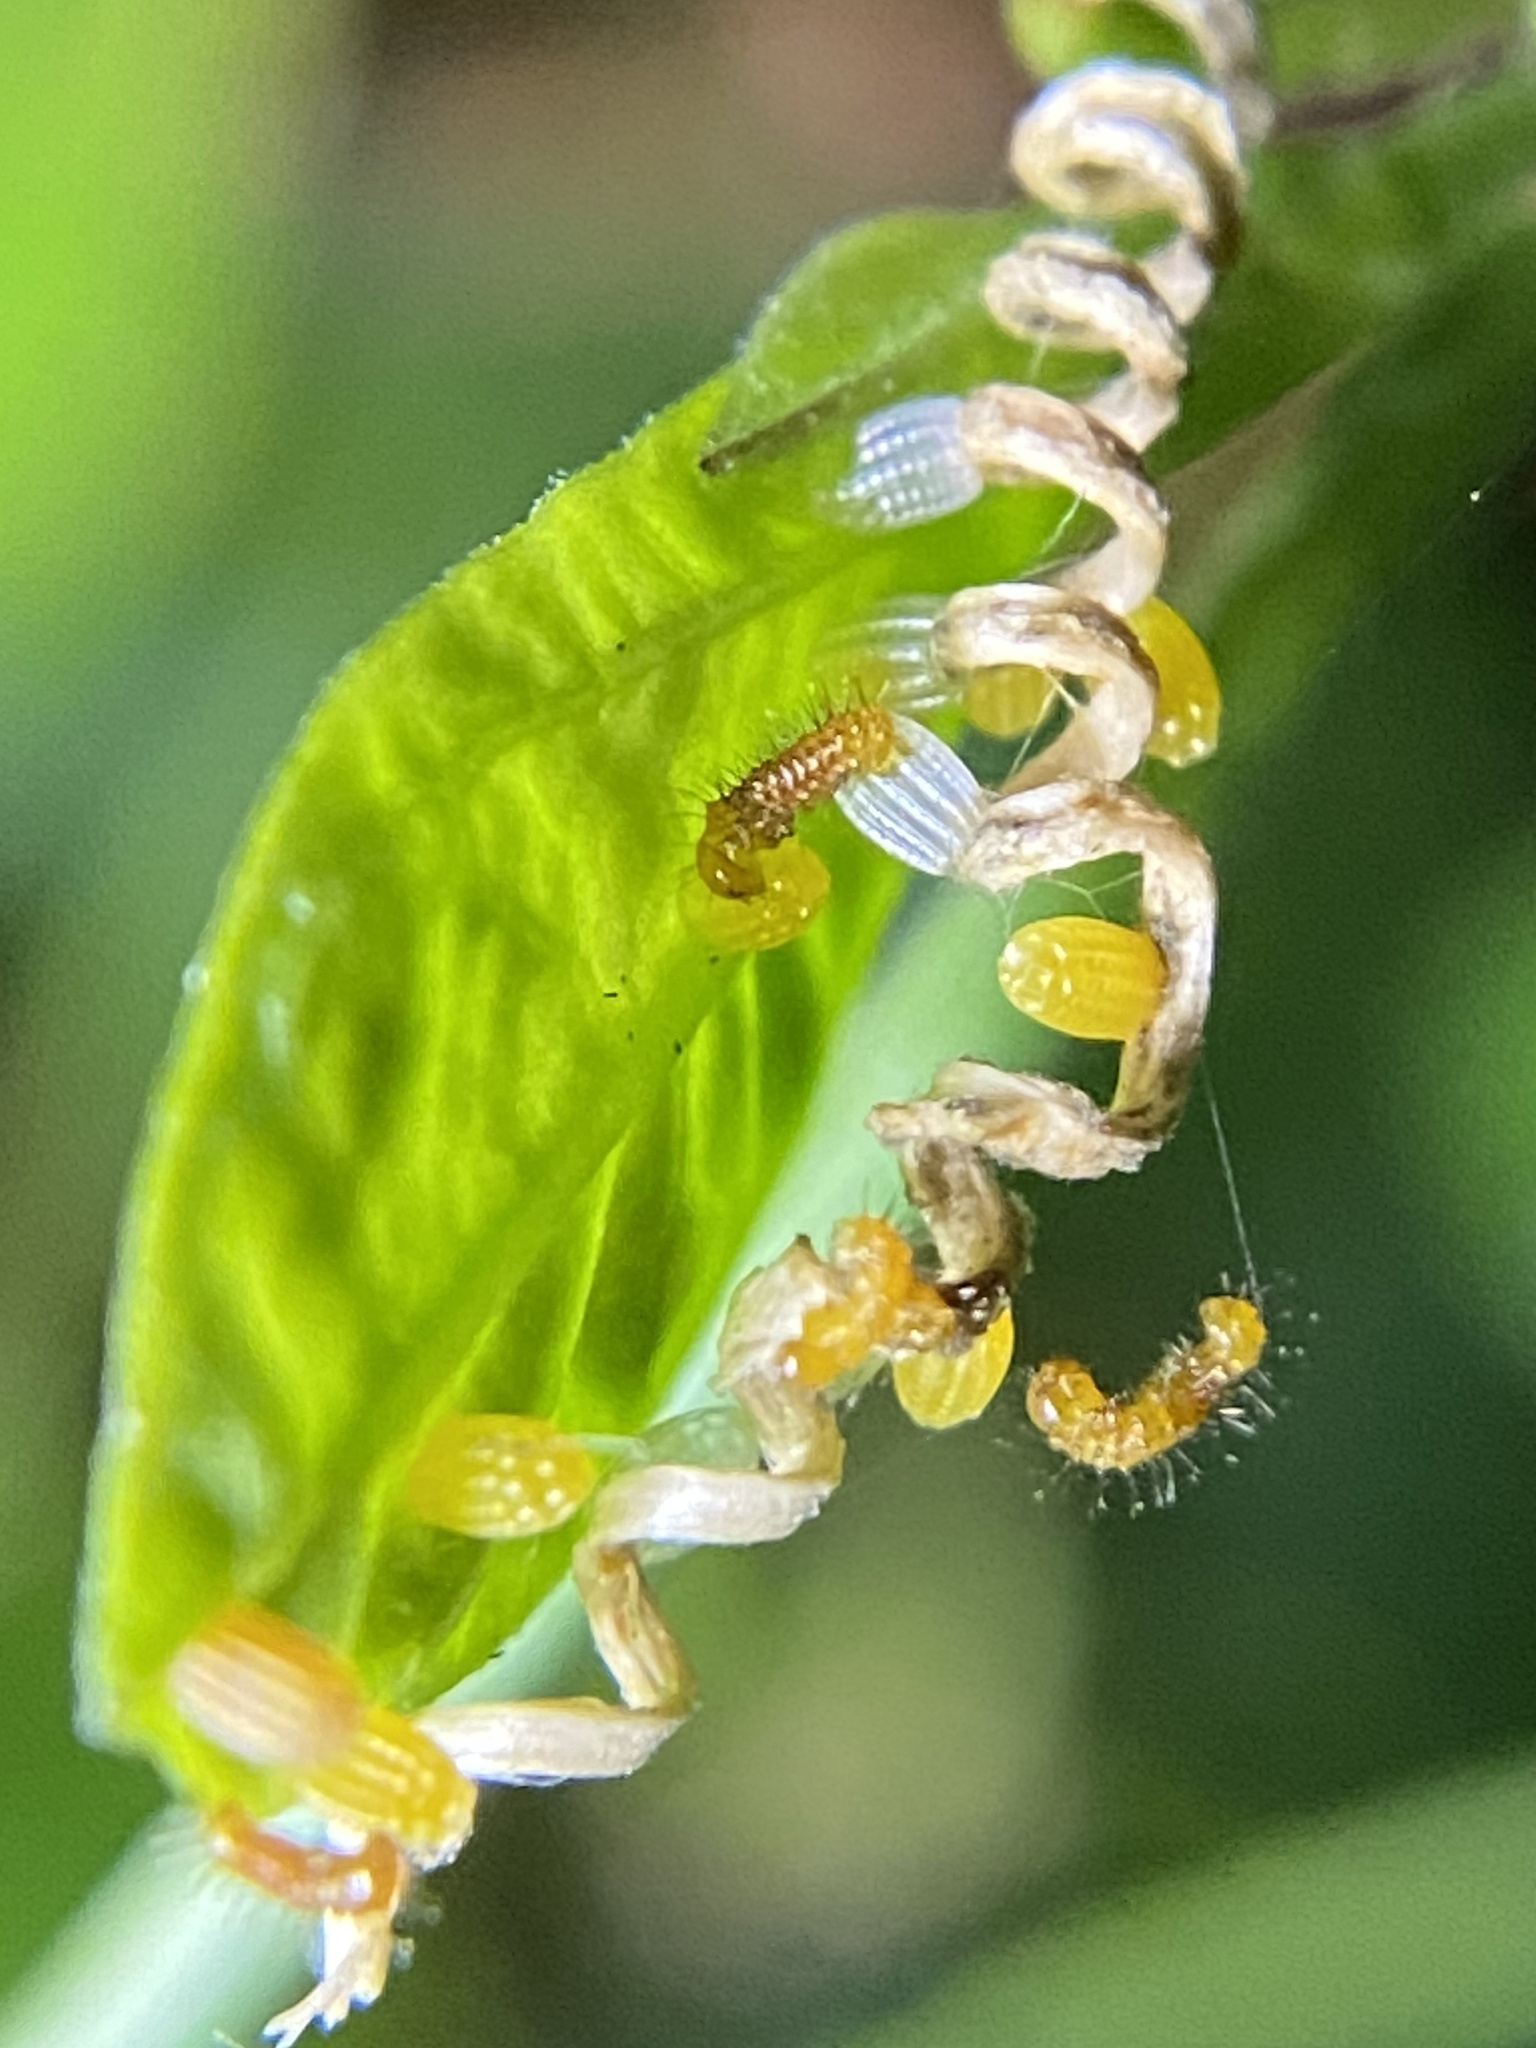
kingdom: Animalia
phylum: Arthropoda
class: Insecta
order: Lepidoptera
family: Nymphalidae
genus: Heliconius
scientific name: Heliconius charithonia
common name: Zebra long wing
